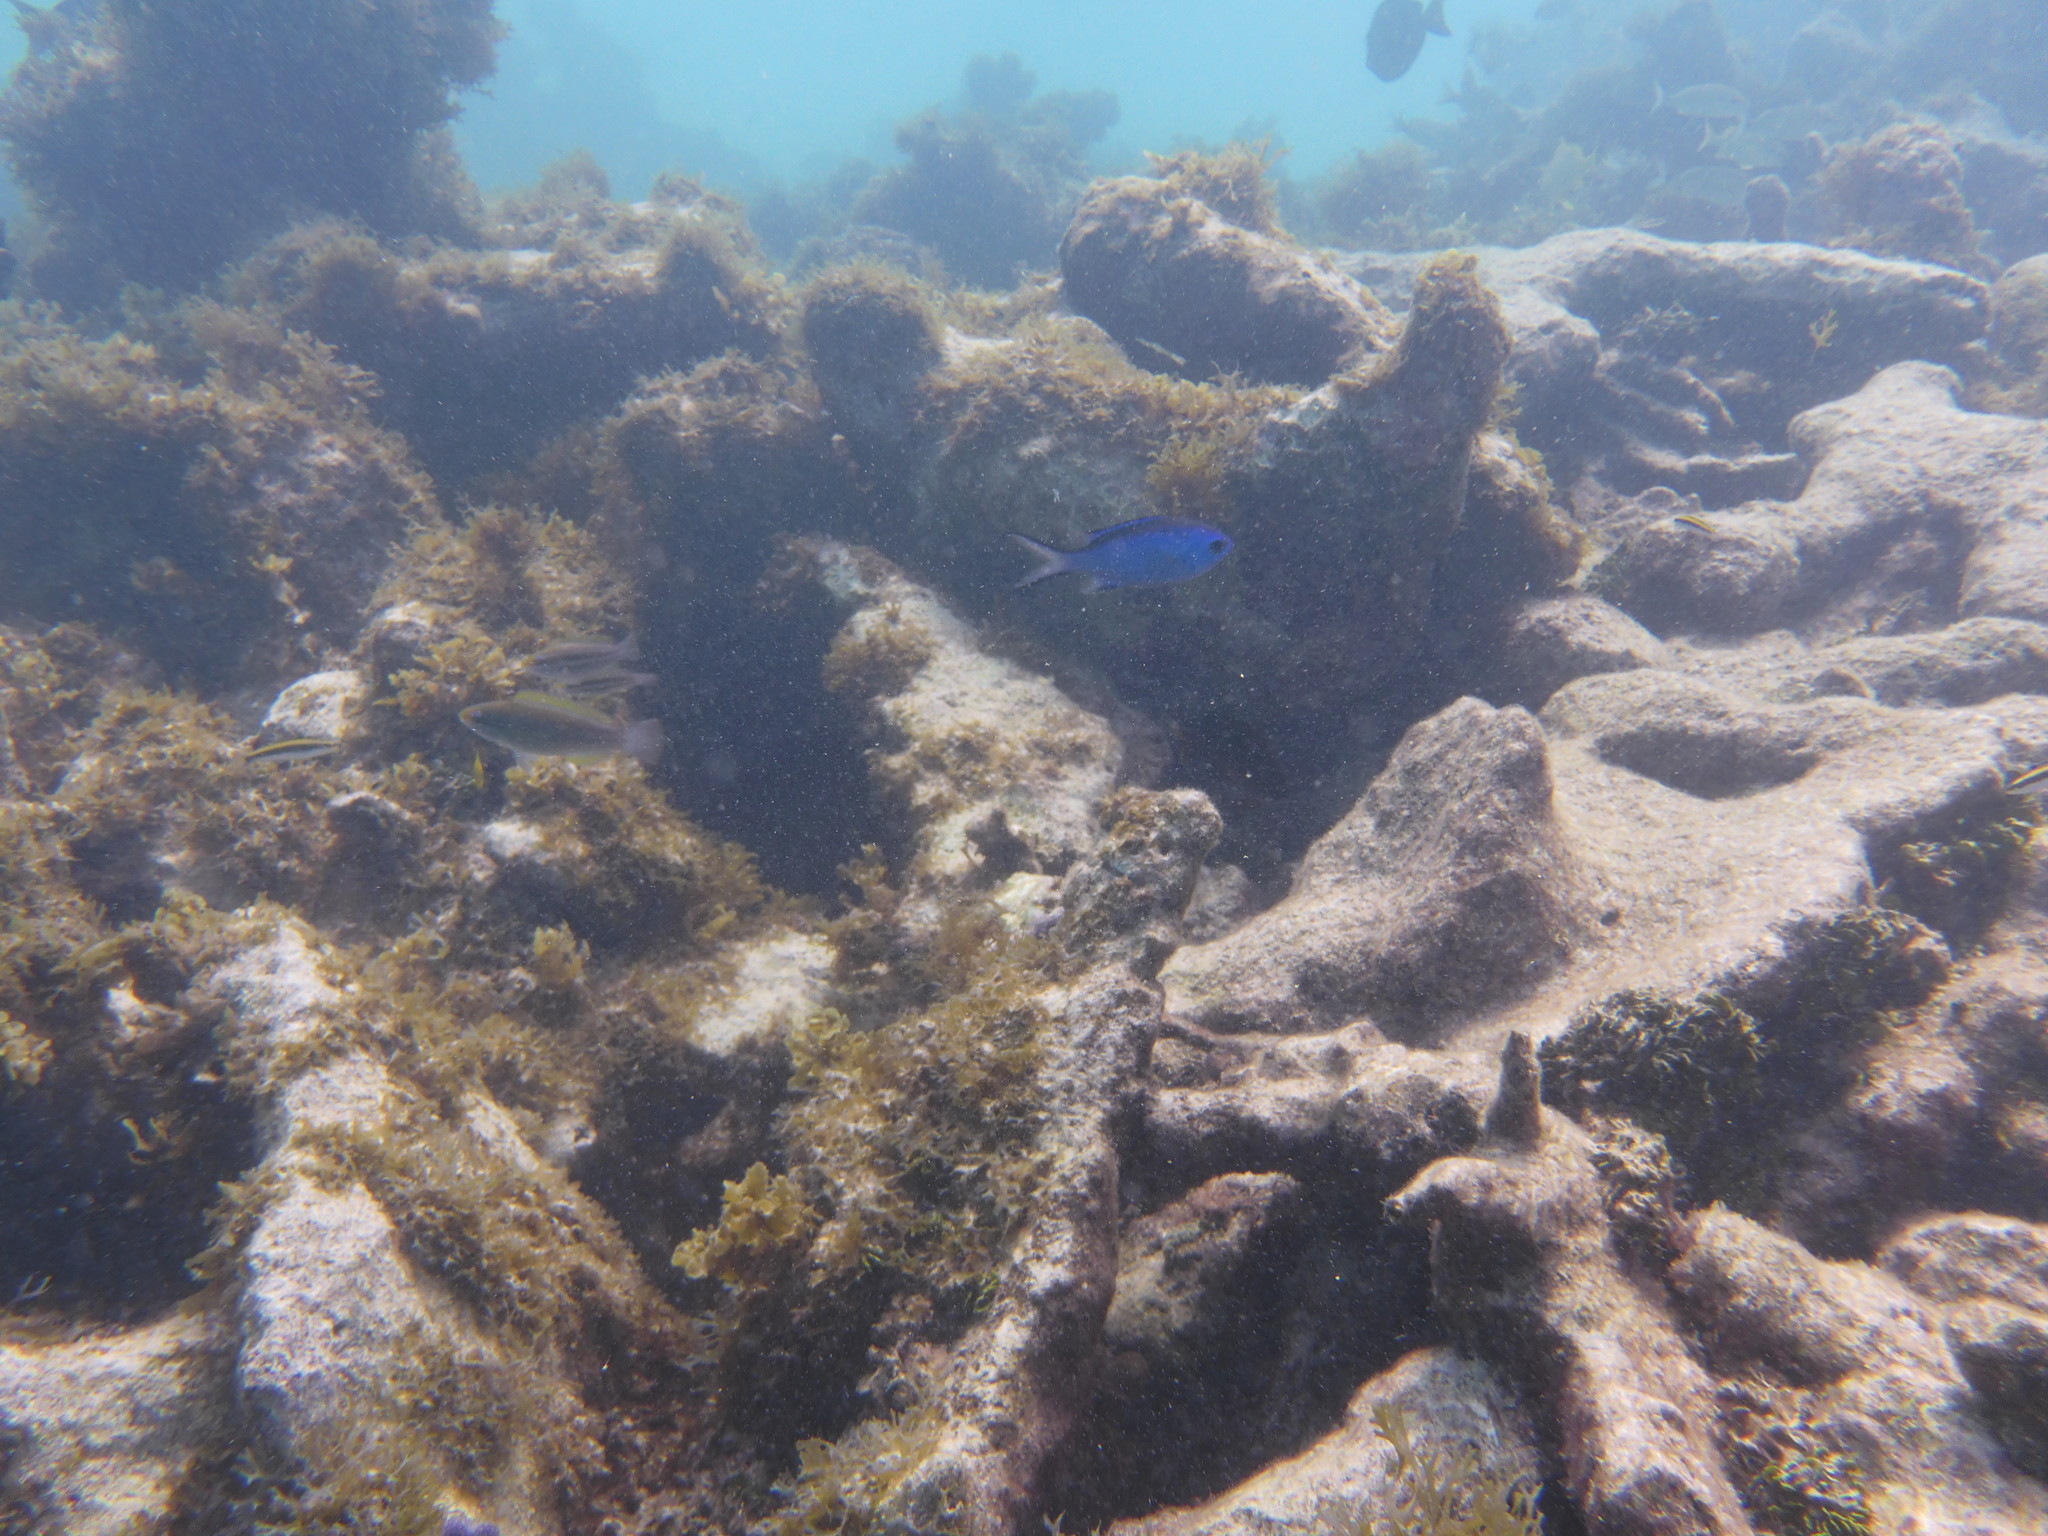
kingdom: Animalia
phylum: Chordata
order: Perciformes
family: Pomacentridae
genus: Chromis
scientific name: Chromis cyanea
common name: Blue chromis
